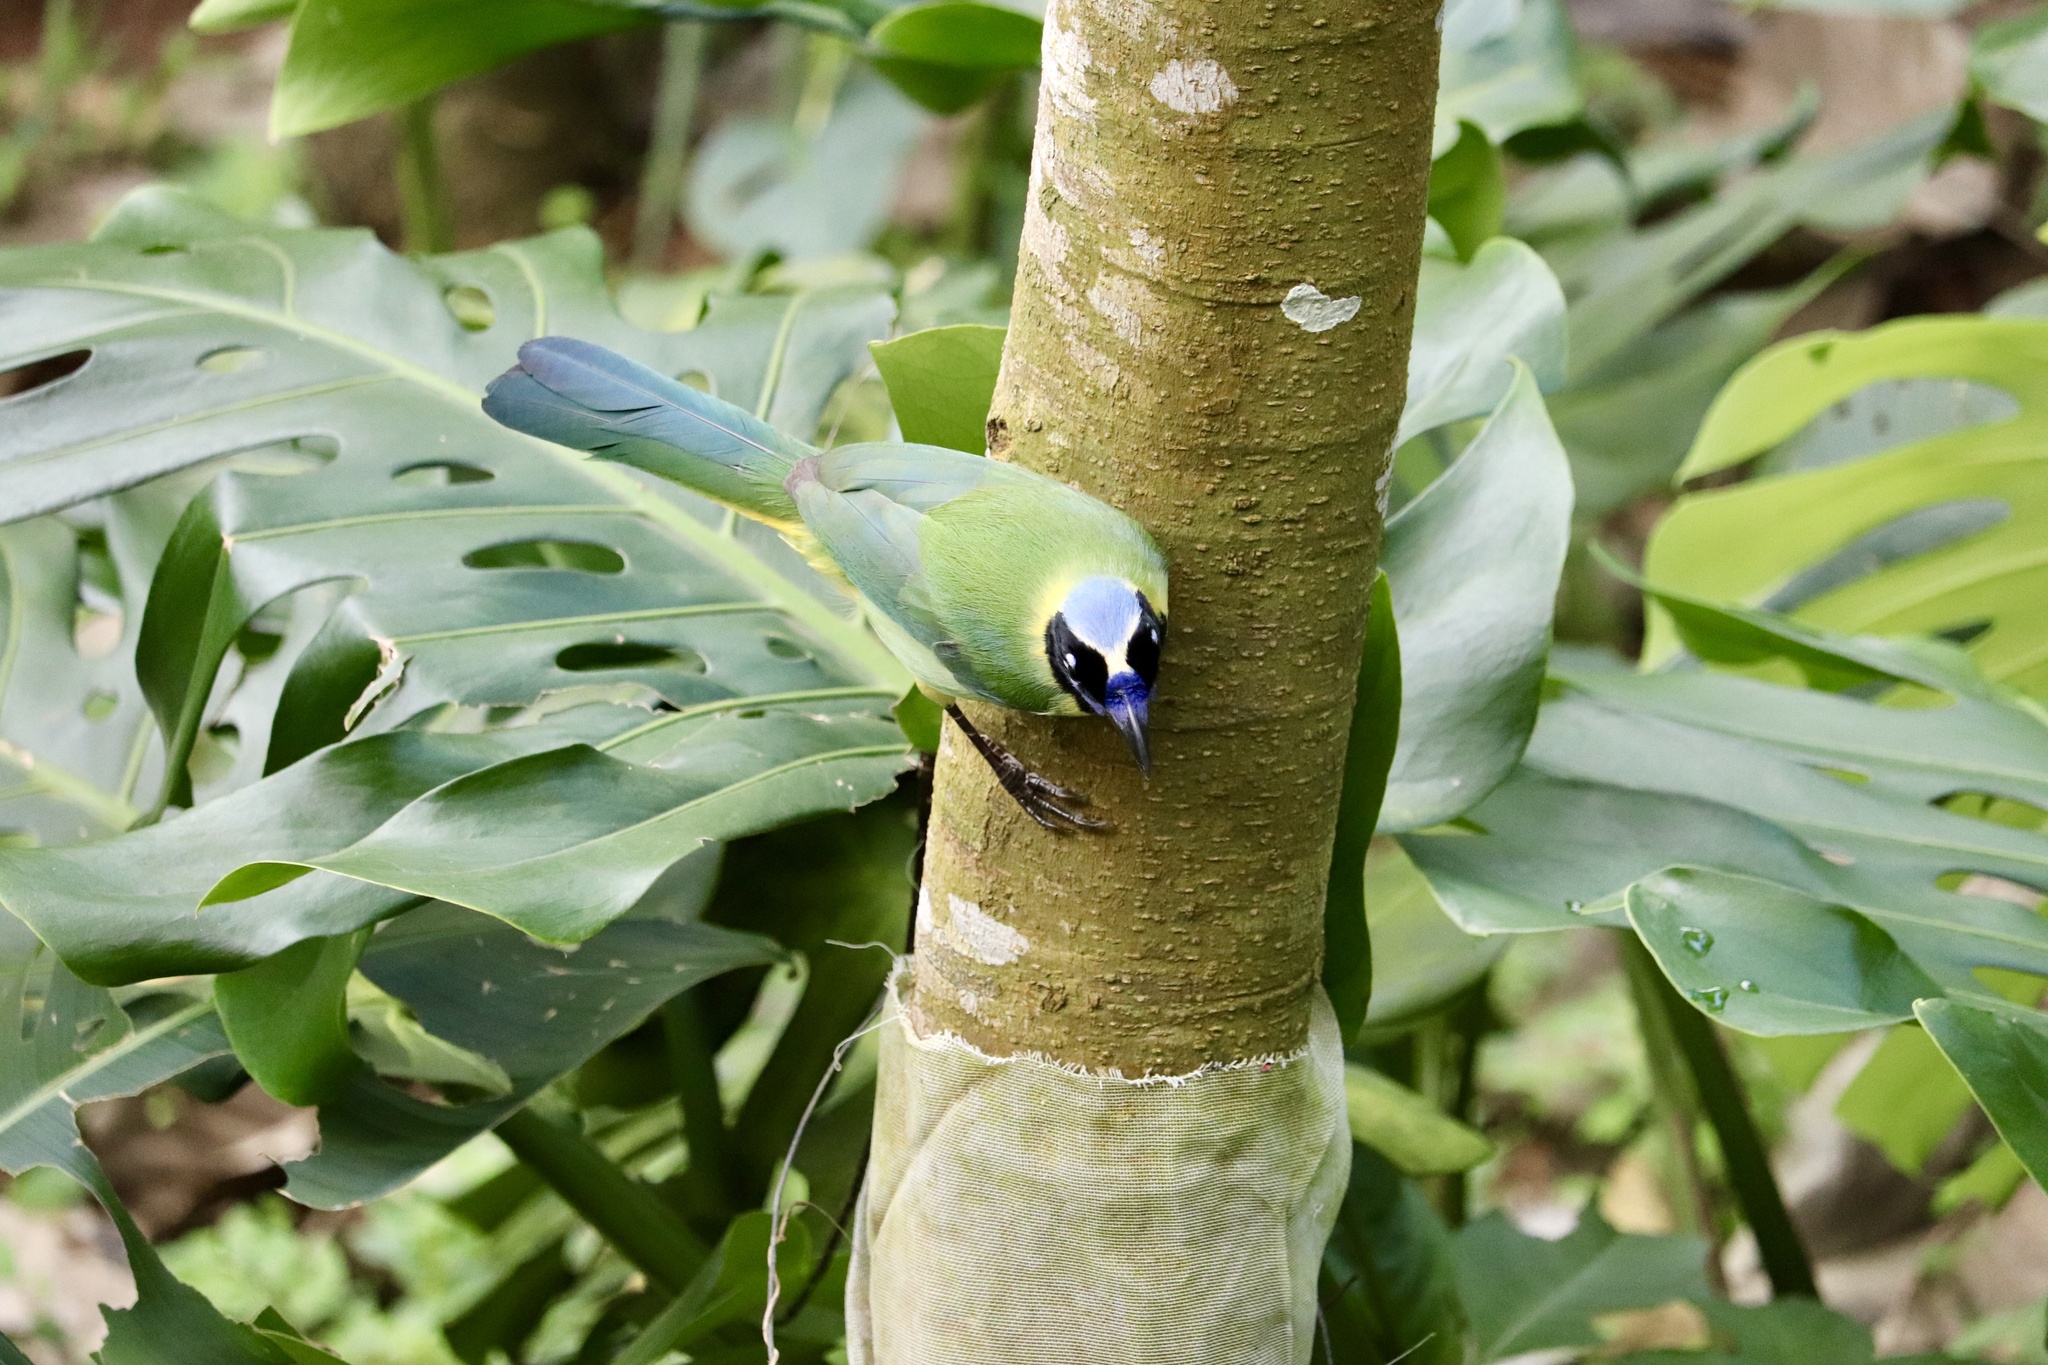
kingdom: Animalia
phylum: Chordata
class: Aves
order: Passeriformes
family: Corvidae
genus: Cyanocorax
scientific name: Cyanocorax yncas
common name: Green jay
